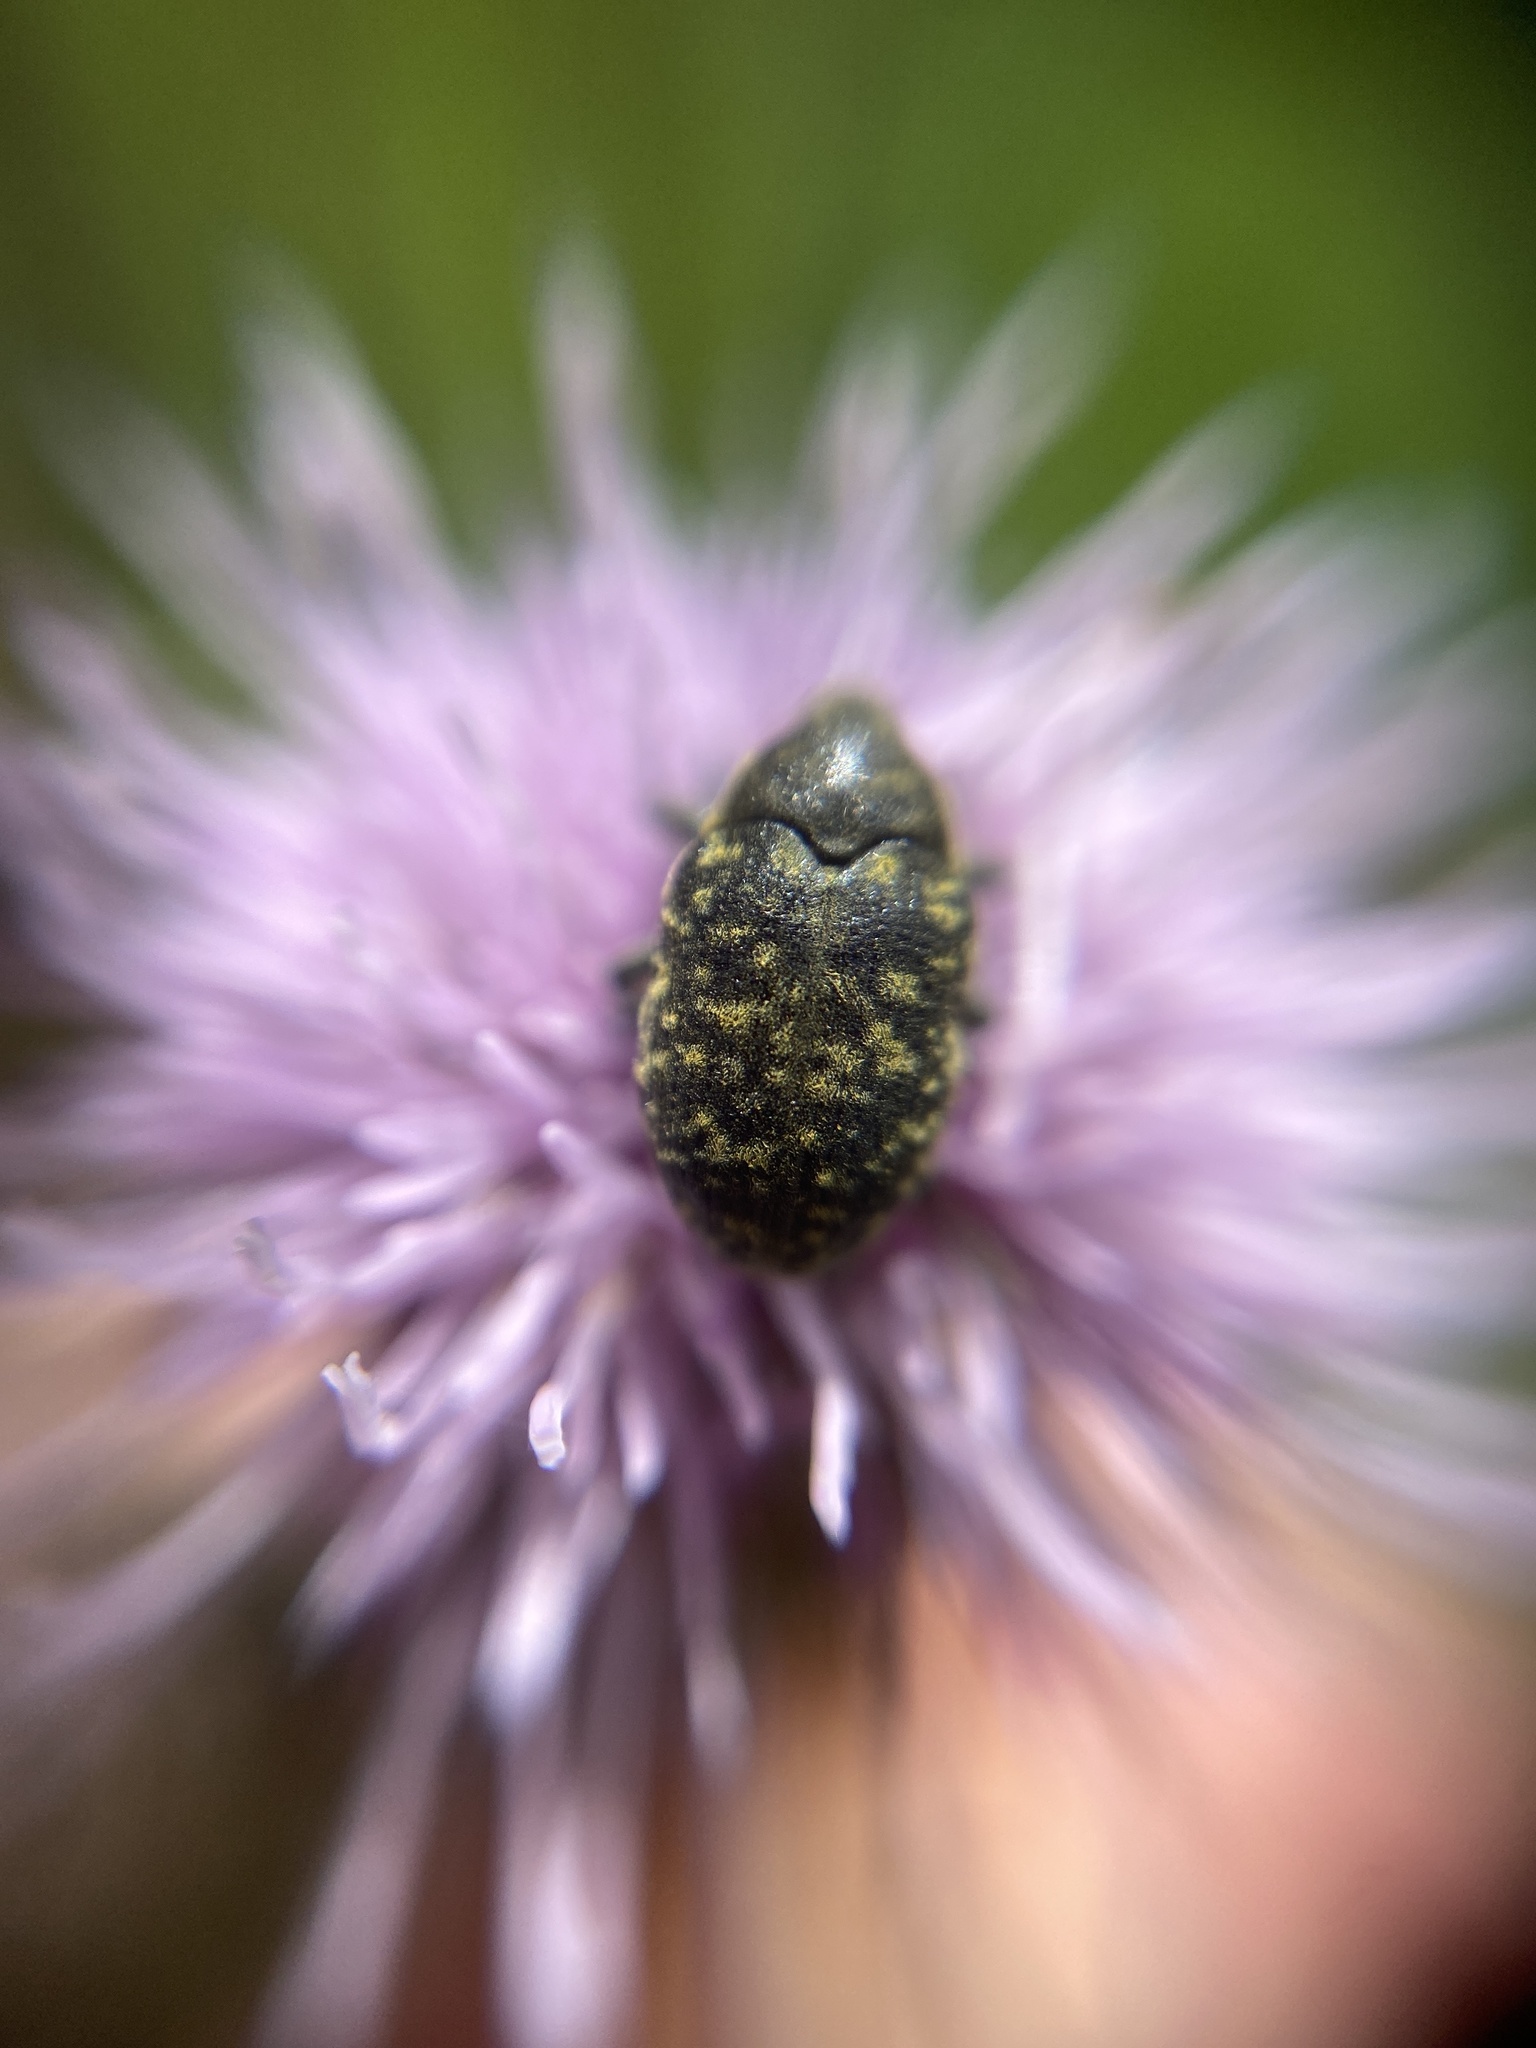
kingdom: Animalia
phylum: Arthropoda
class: Insecta
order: Coleoptera
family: Curculionidae
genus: Larinus
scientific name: Larinus turbinatus
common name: Weevil
